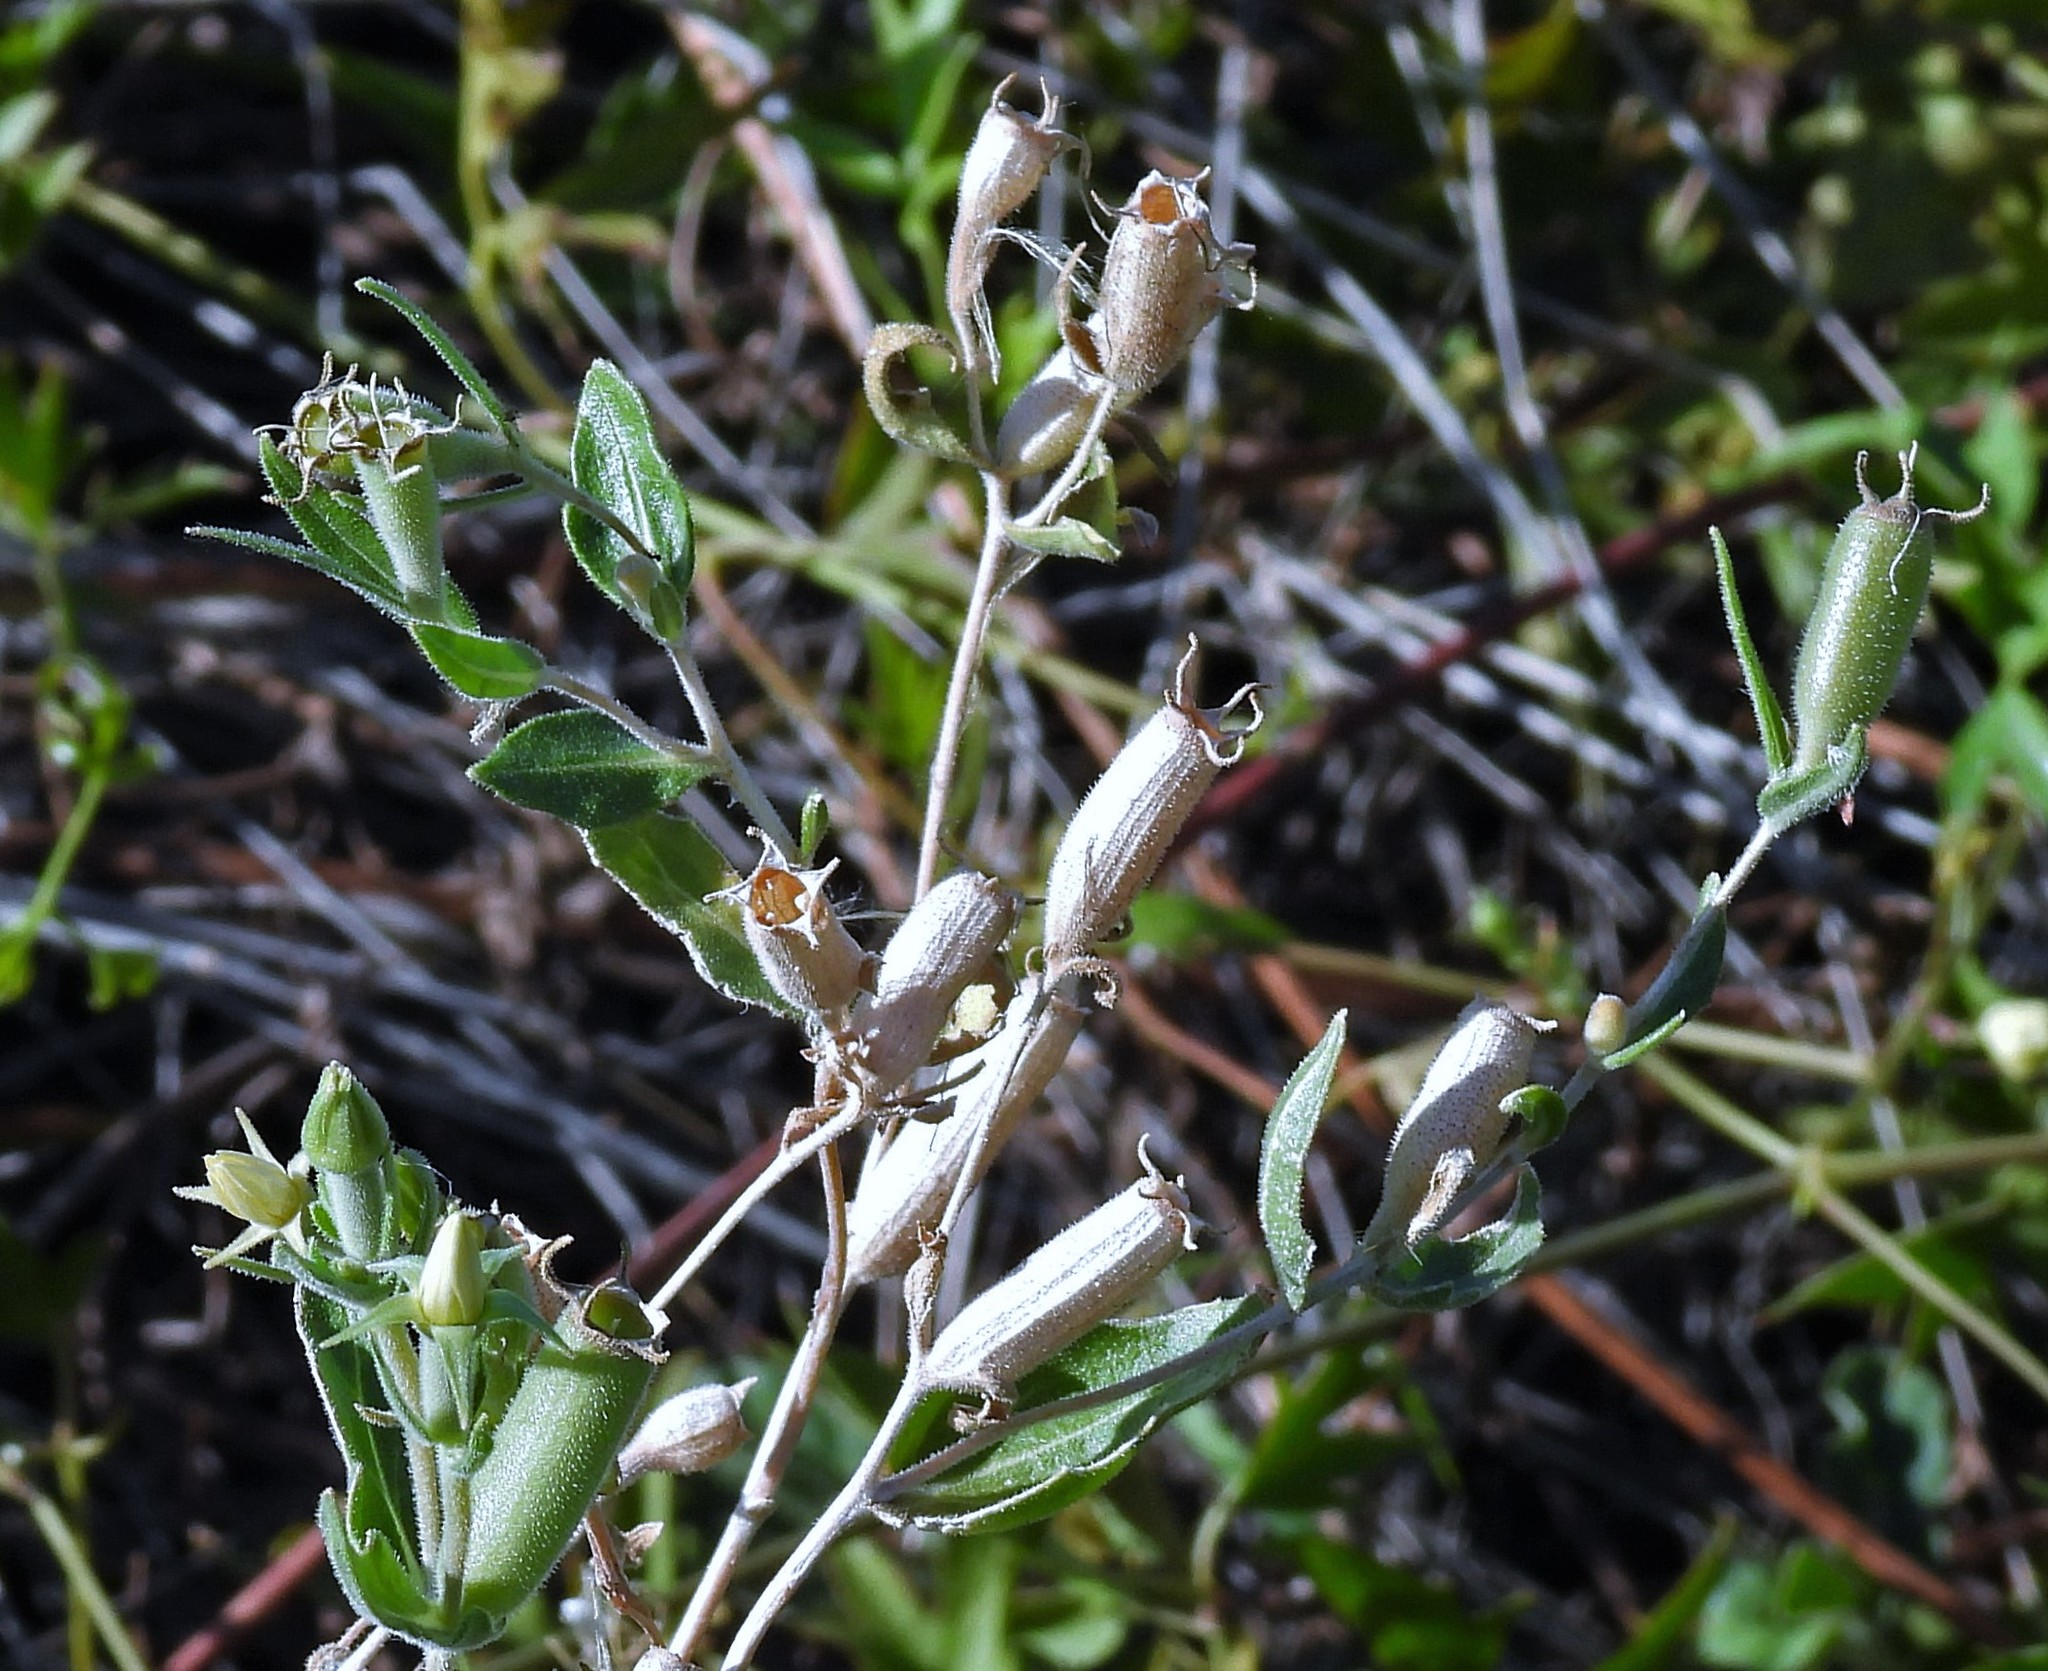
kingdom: Plantae
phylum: Tracheophyta
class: Magnoliopsida
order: Cornales
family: Loasaceae
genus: Mentzelia
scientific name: Mentzelia albescens
